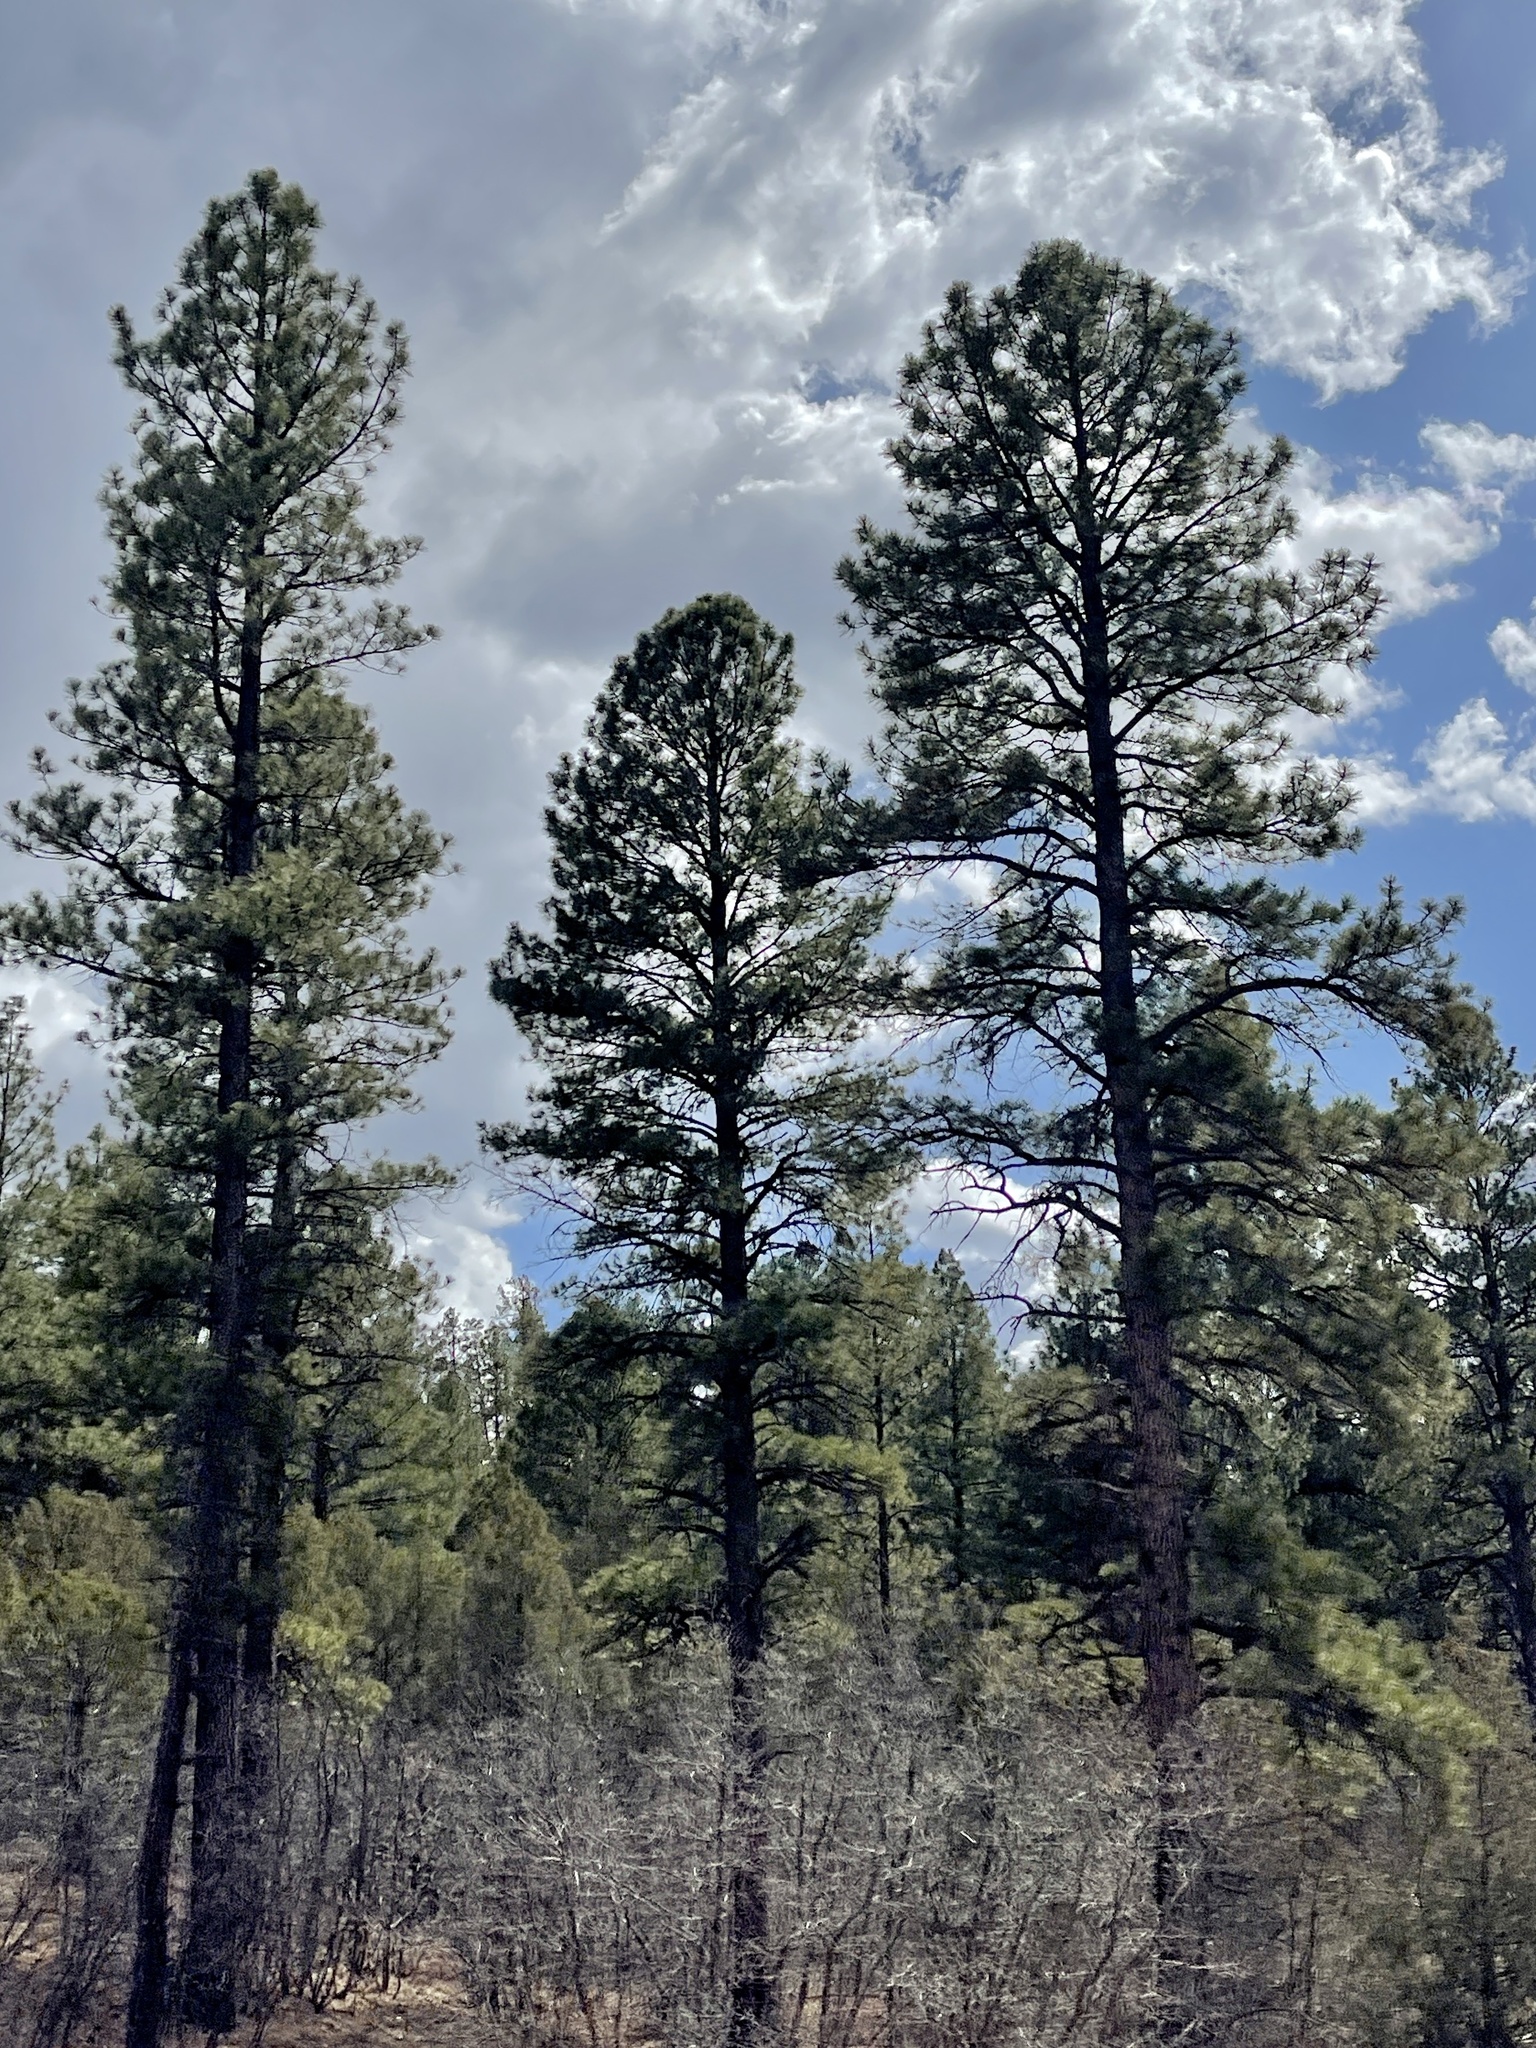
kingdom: Plantae
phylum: Tracheophyta
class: Pinopsida
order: Pinales
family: Pinaceae
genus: Pinus
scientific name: Pinus ponderosa
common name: Western yellow-pine
